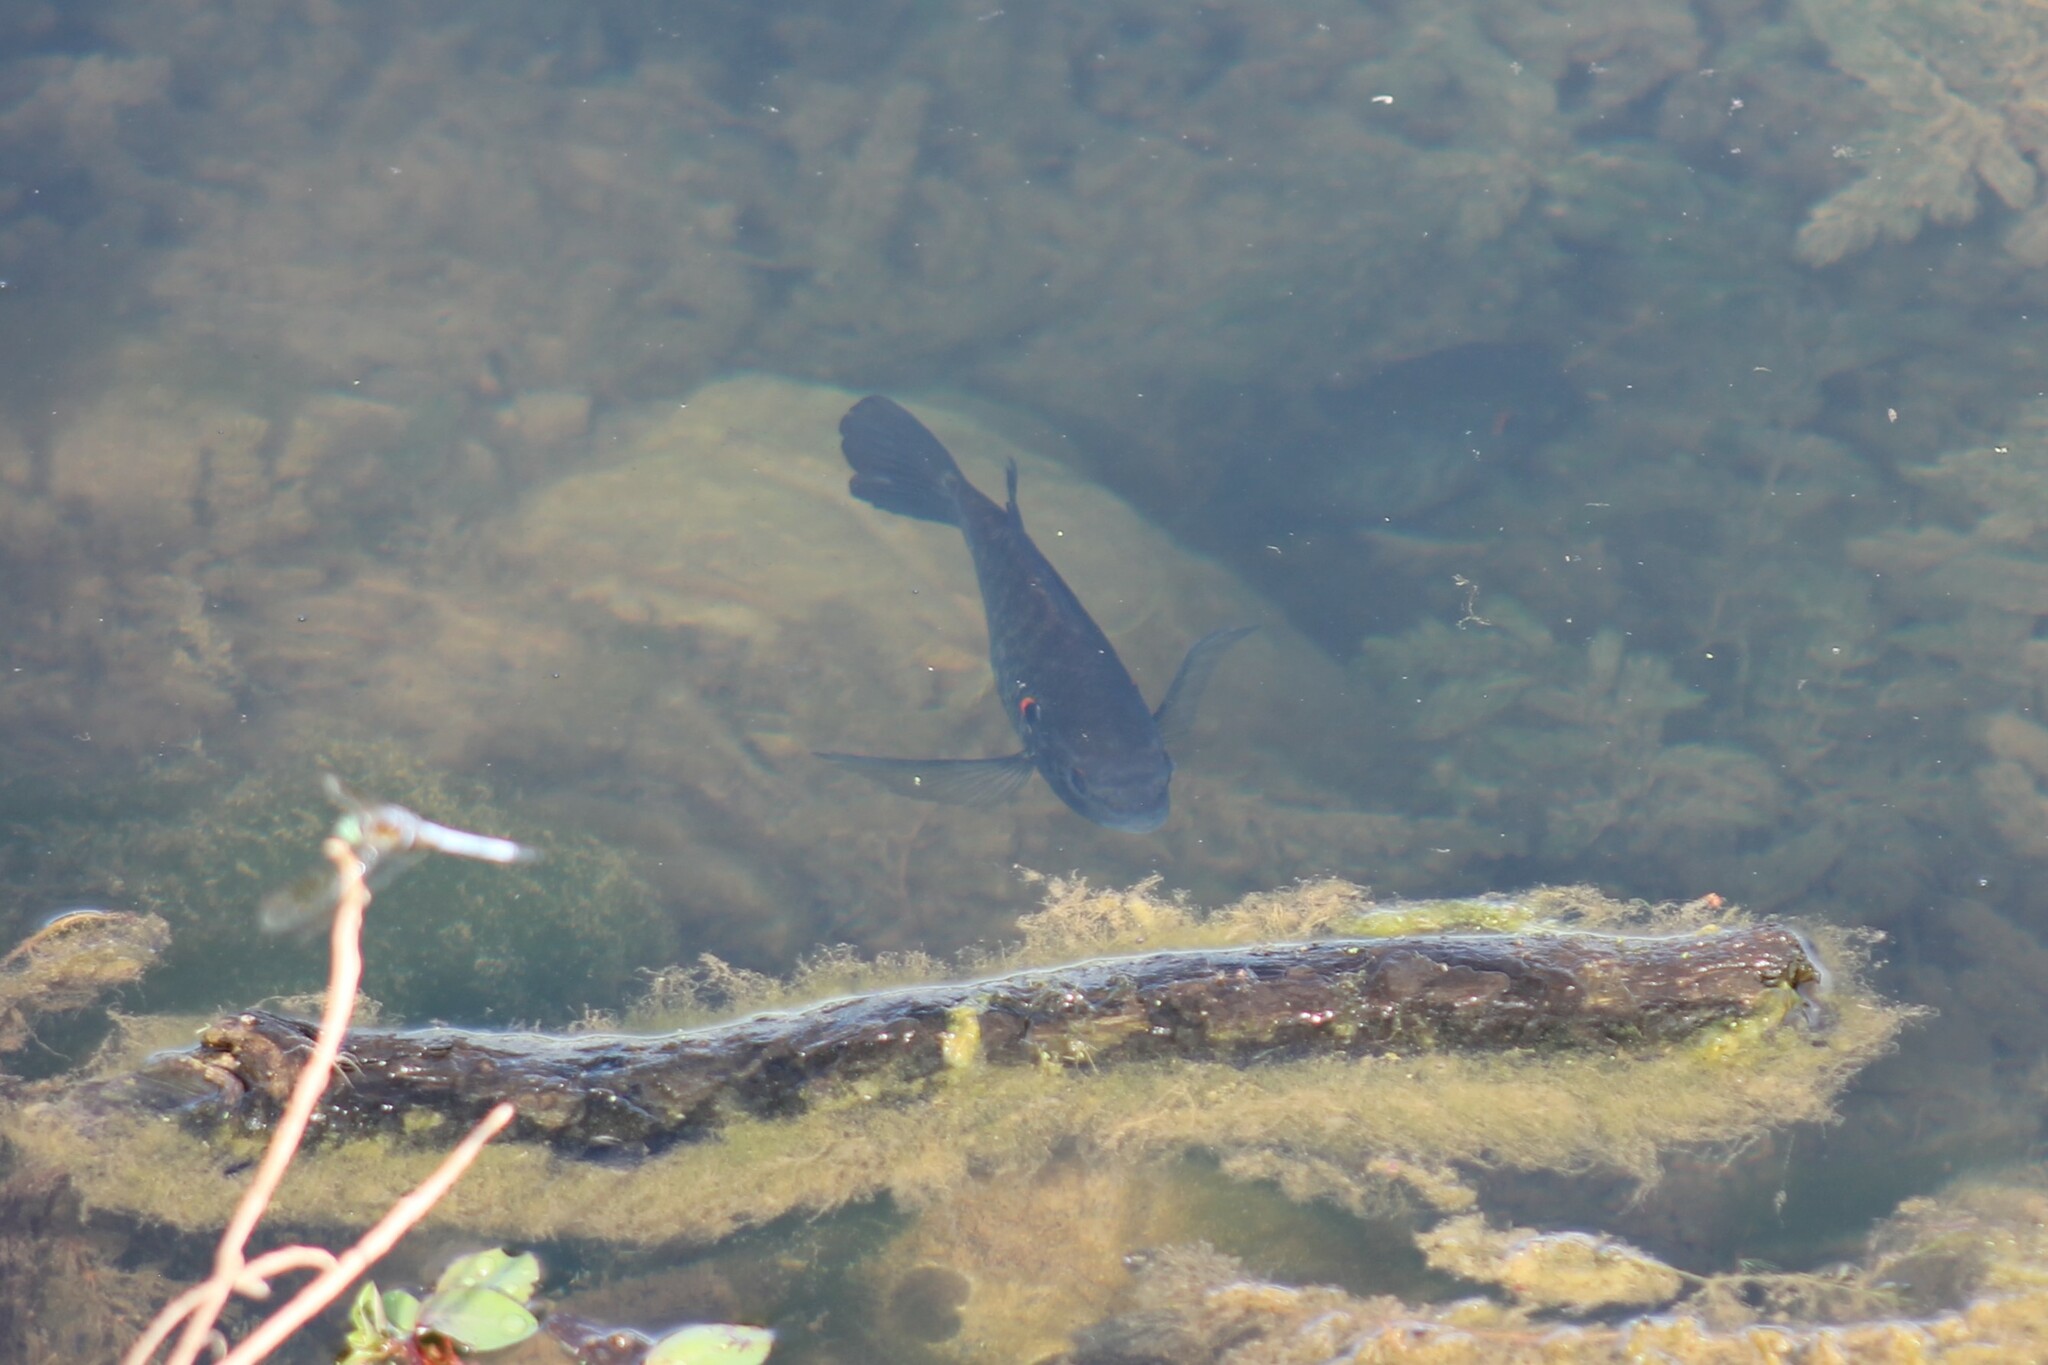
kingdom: Animalia
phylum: Chordata
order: Perciformes
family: Centrarchidae
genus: Lepomis
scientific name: Lepomis microlophus
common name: Redear sunfish
